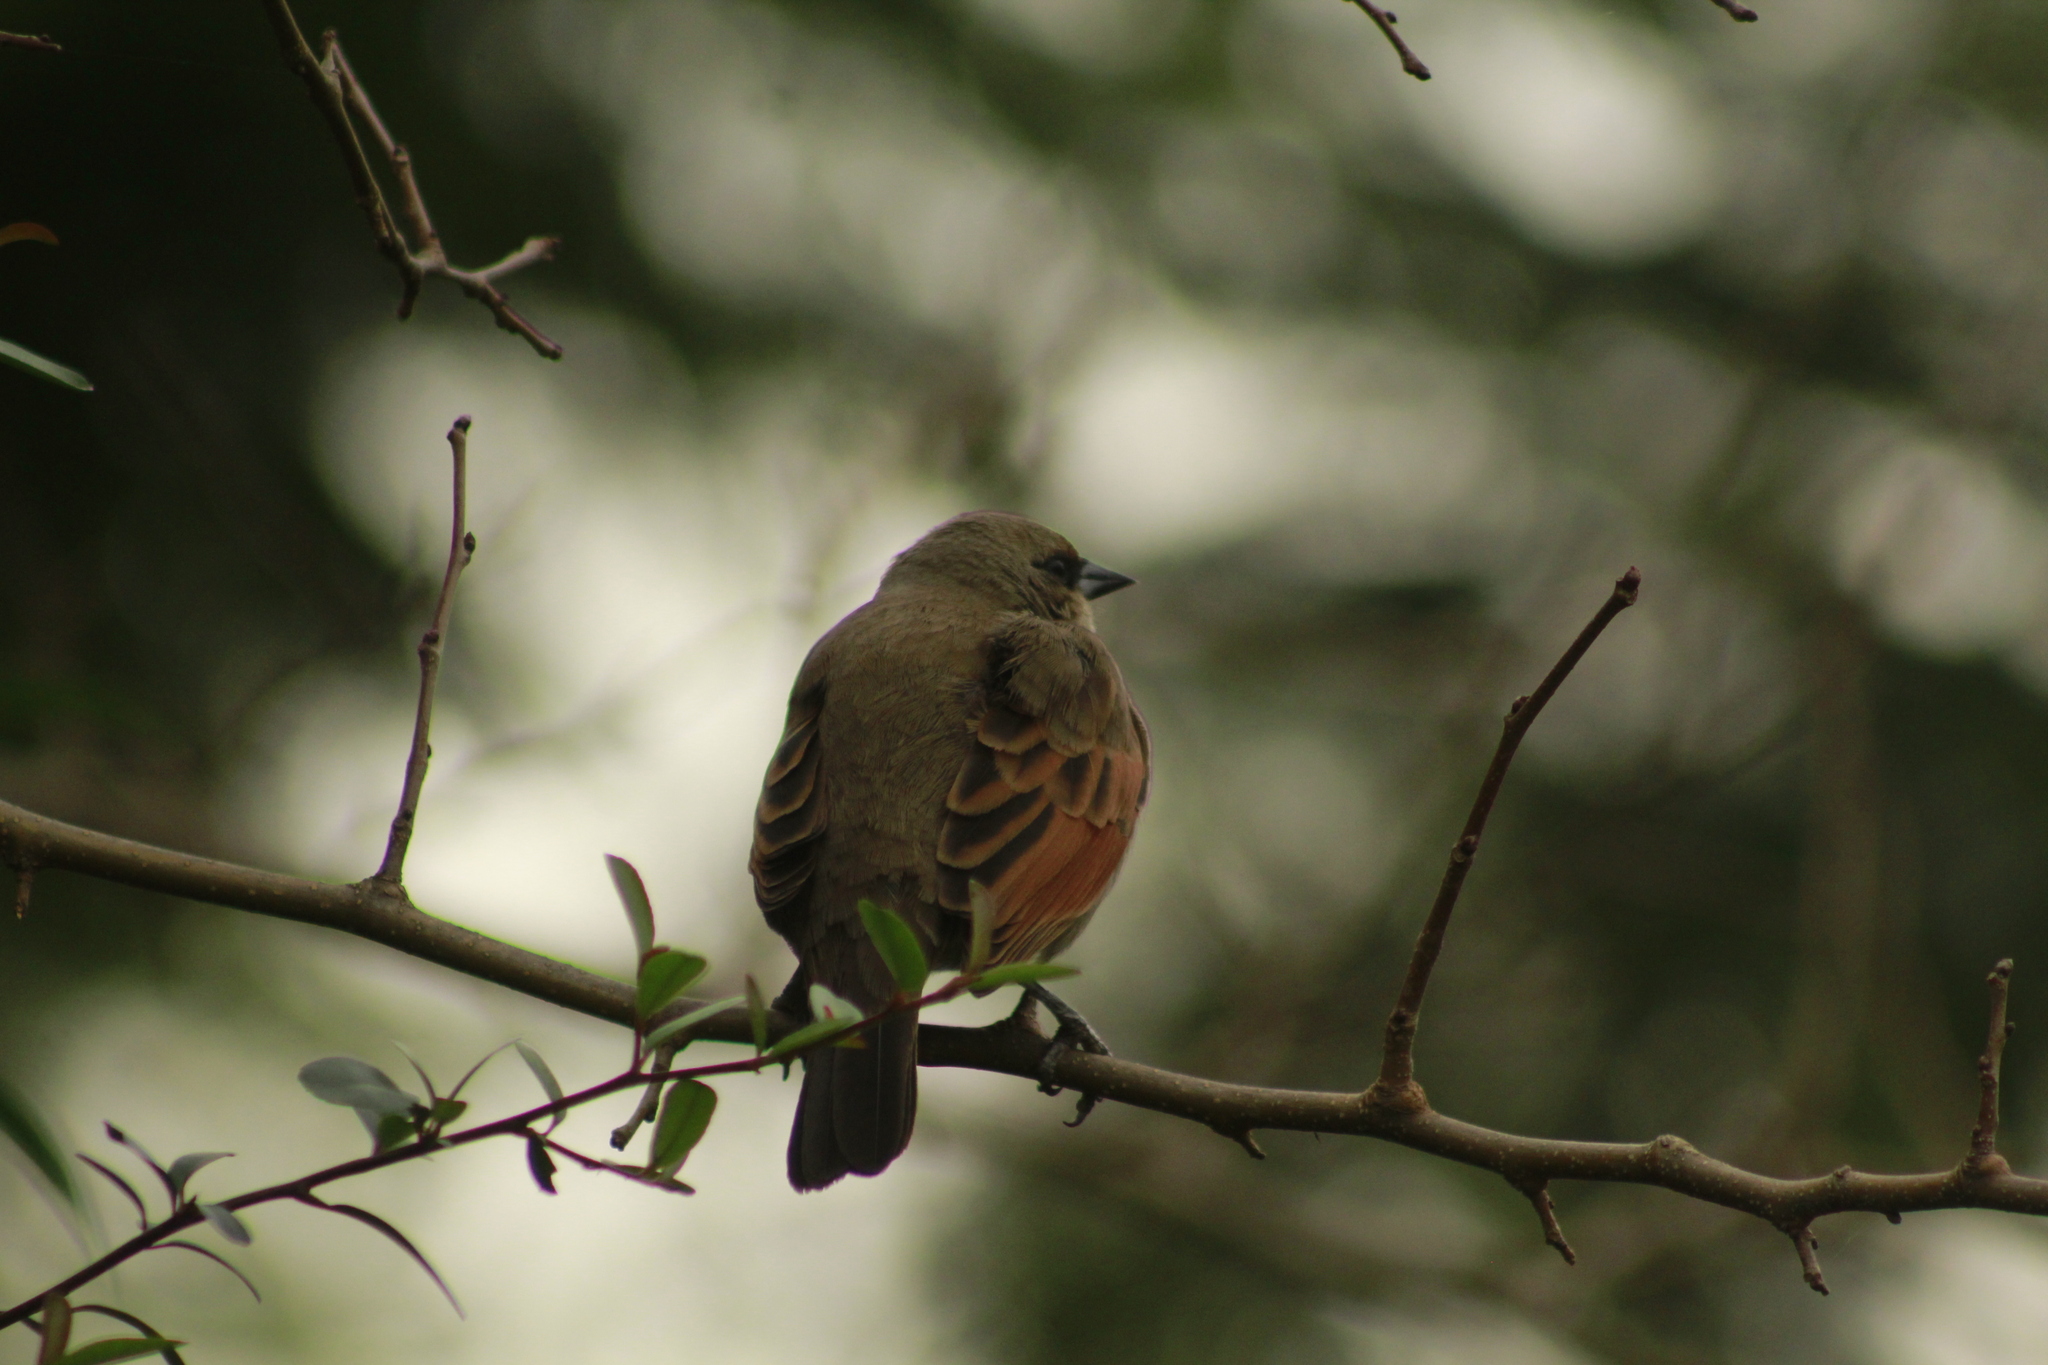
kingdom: Animalia
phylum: Chordata
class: Aves
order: Passeriformes
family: Icteridae
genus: Agelaioides
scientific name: Agelaioides badius
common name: Baywing
